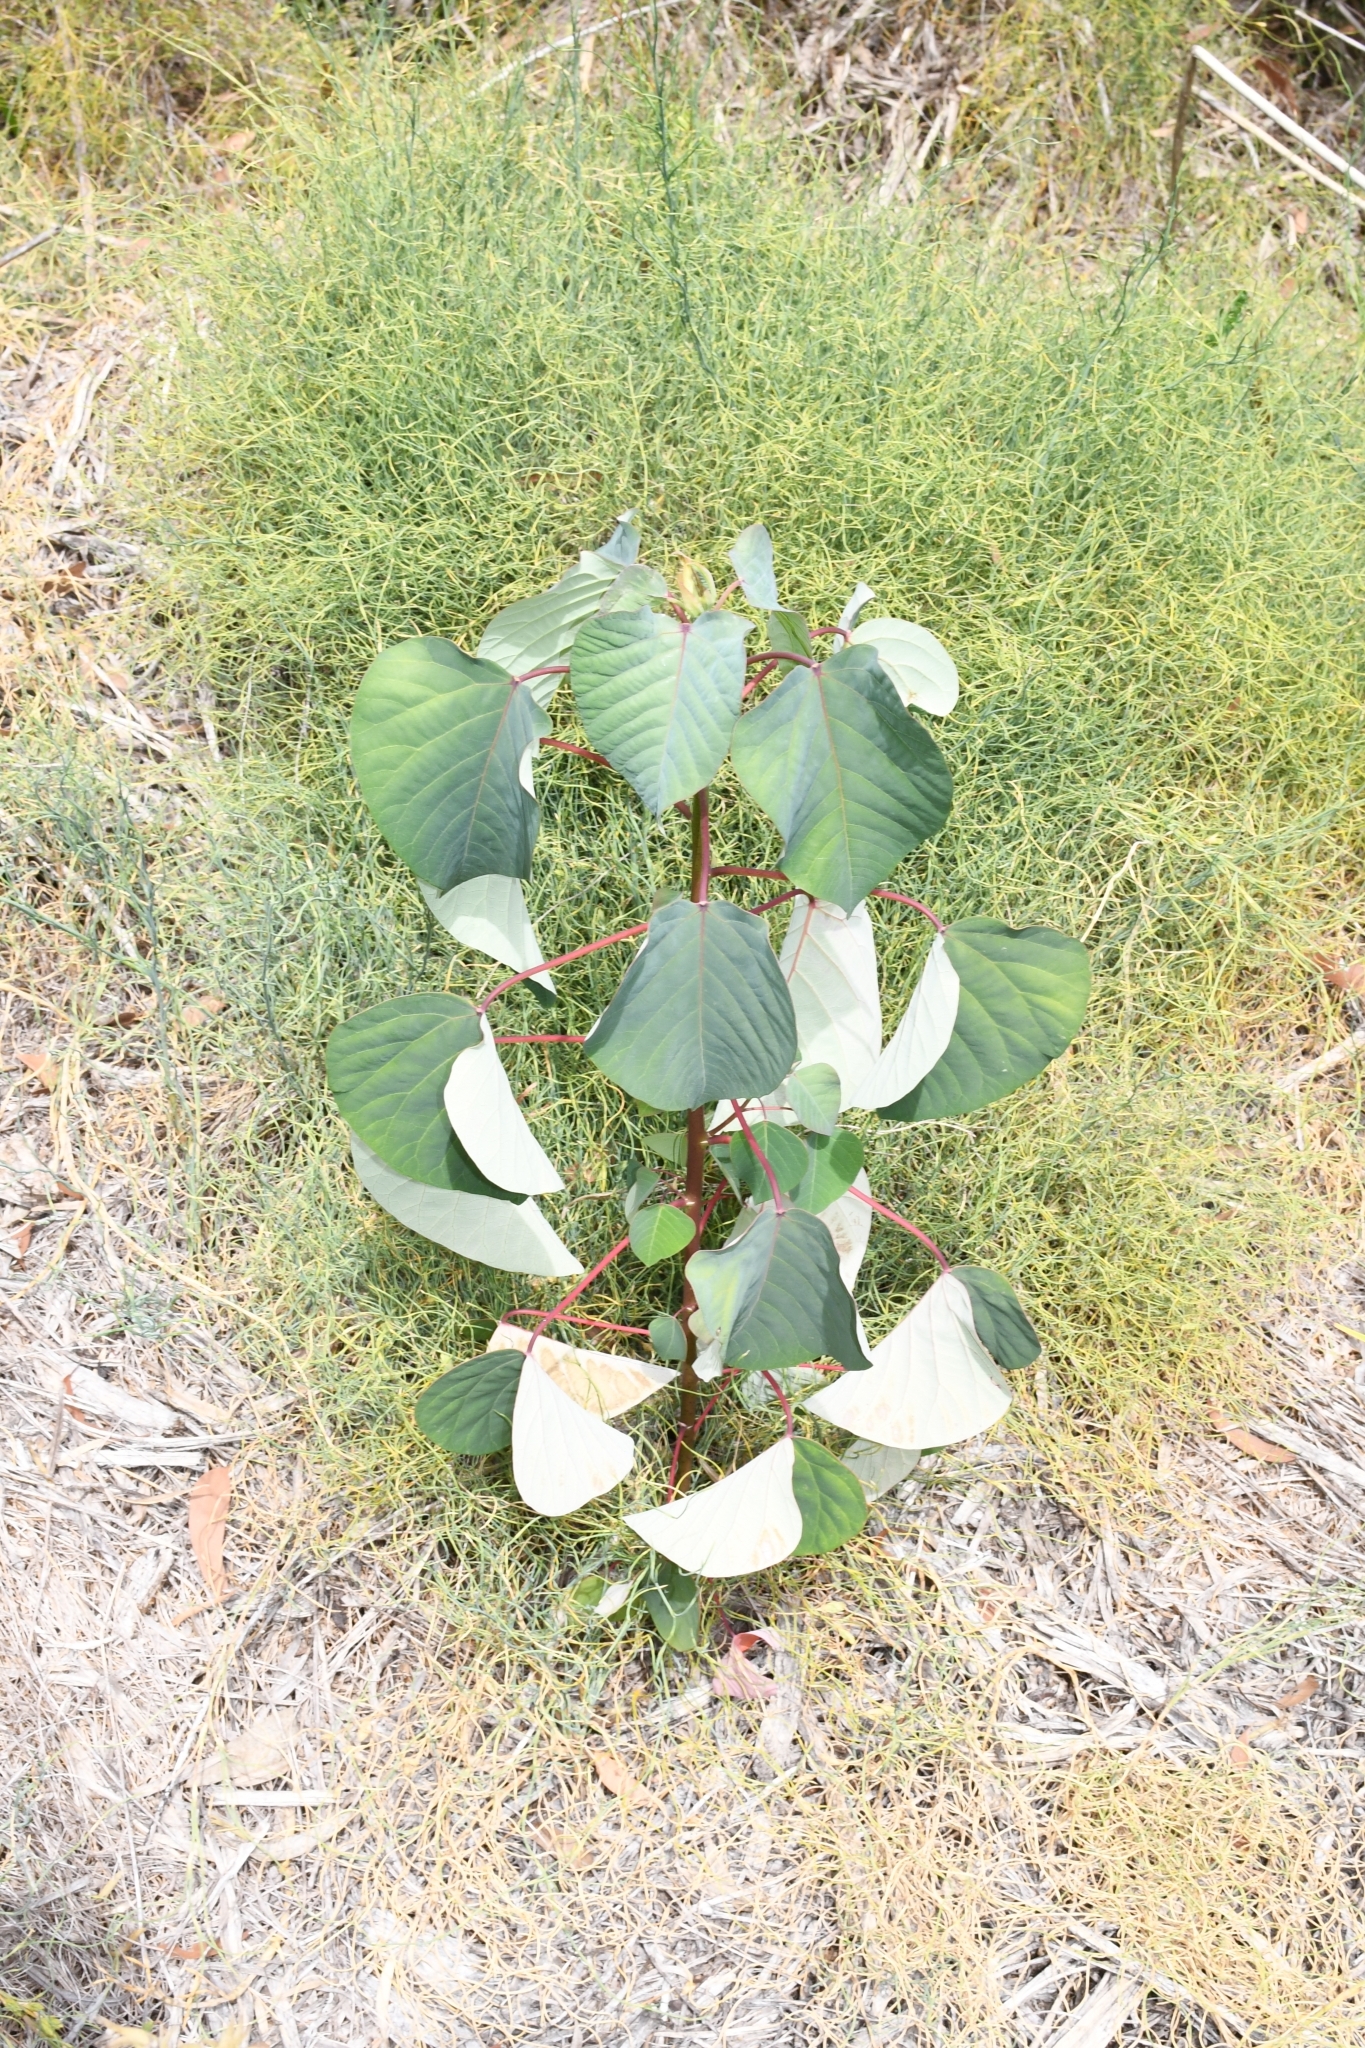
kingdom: Plantae
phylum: Tracheophyta
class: Magnoliopsida
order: Malpighiales
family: Euphorbiaceae
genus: Homalanthus
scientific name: Homalanthus populifolius
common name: Queensland poplar
